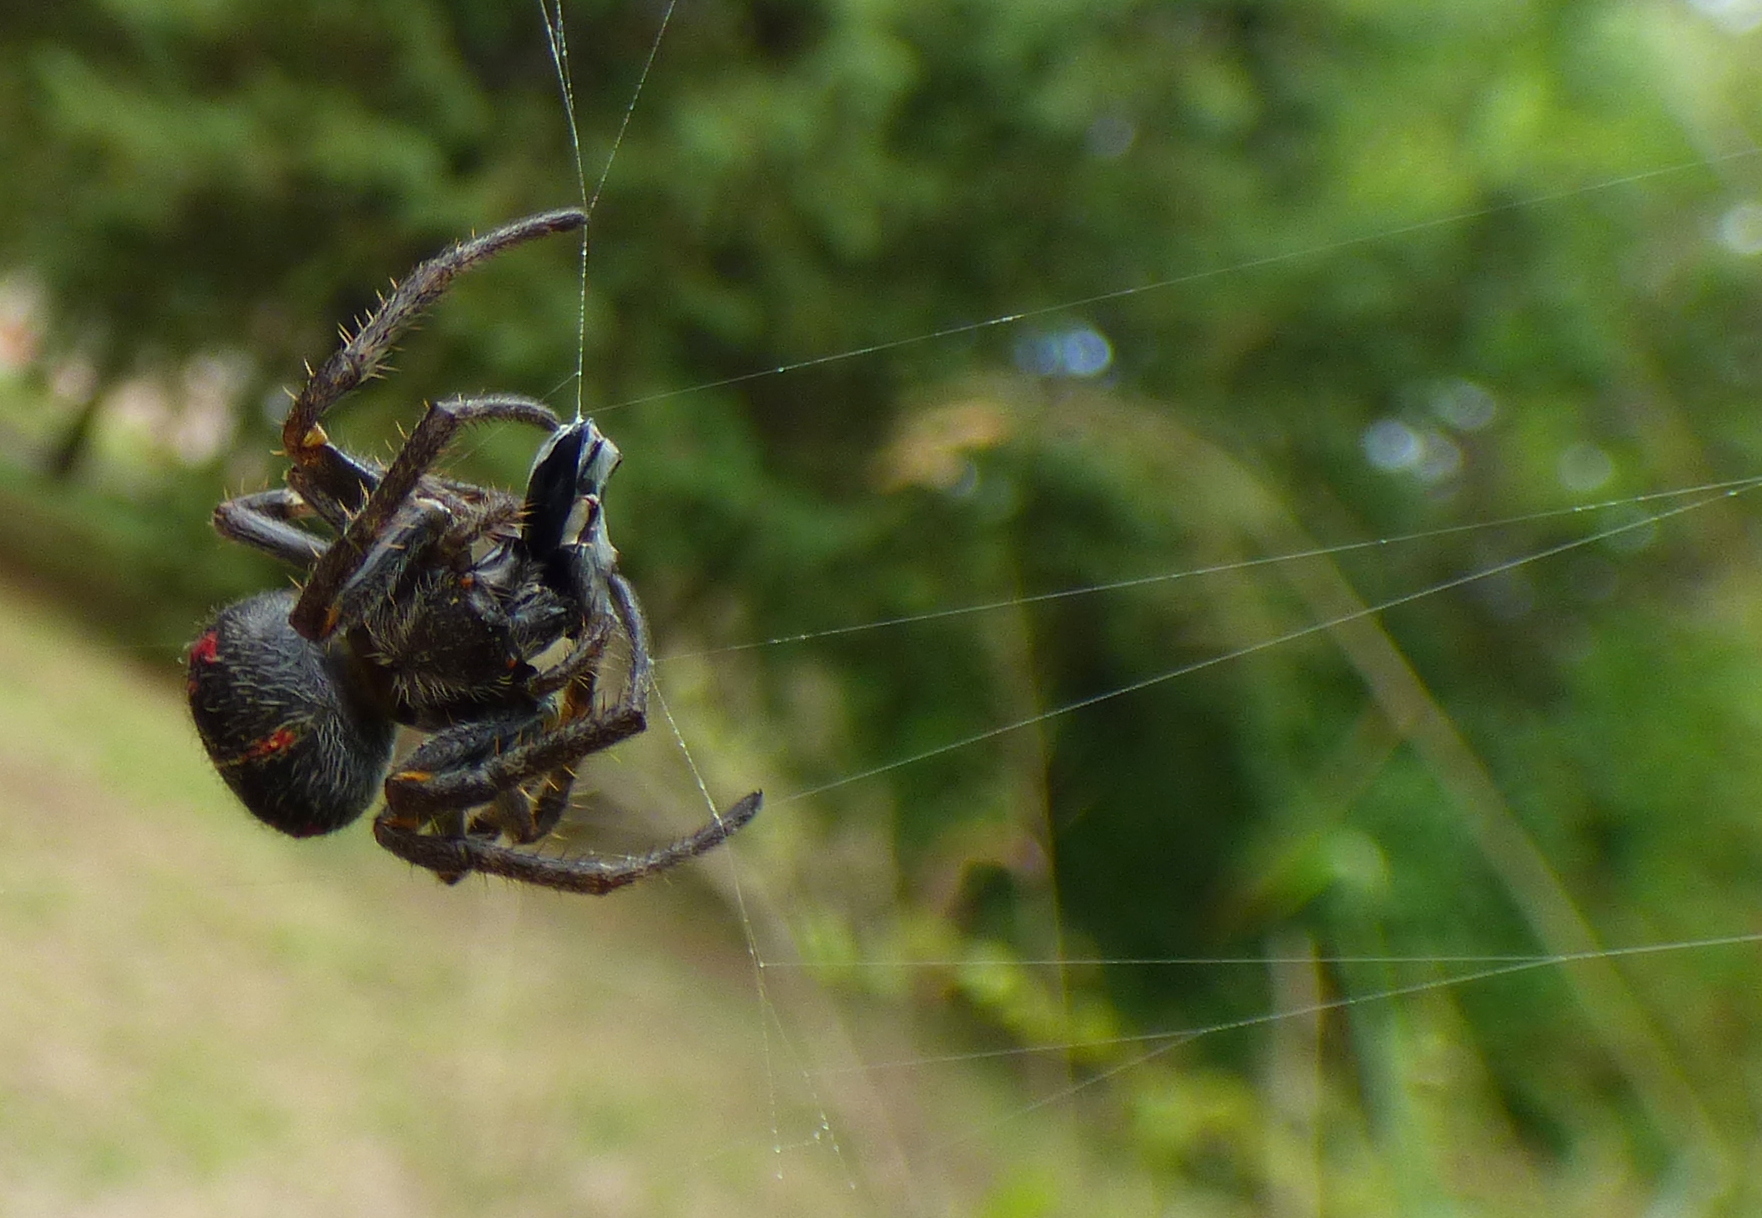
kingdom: Animalia
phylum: Arthropoda
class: Arachnida
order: Araneae
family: Araneidae
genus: Parawixia
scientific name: Parawixia bistriata
